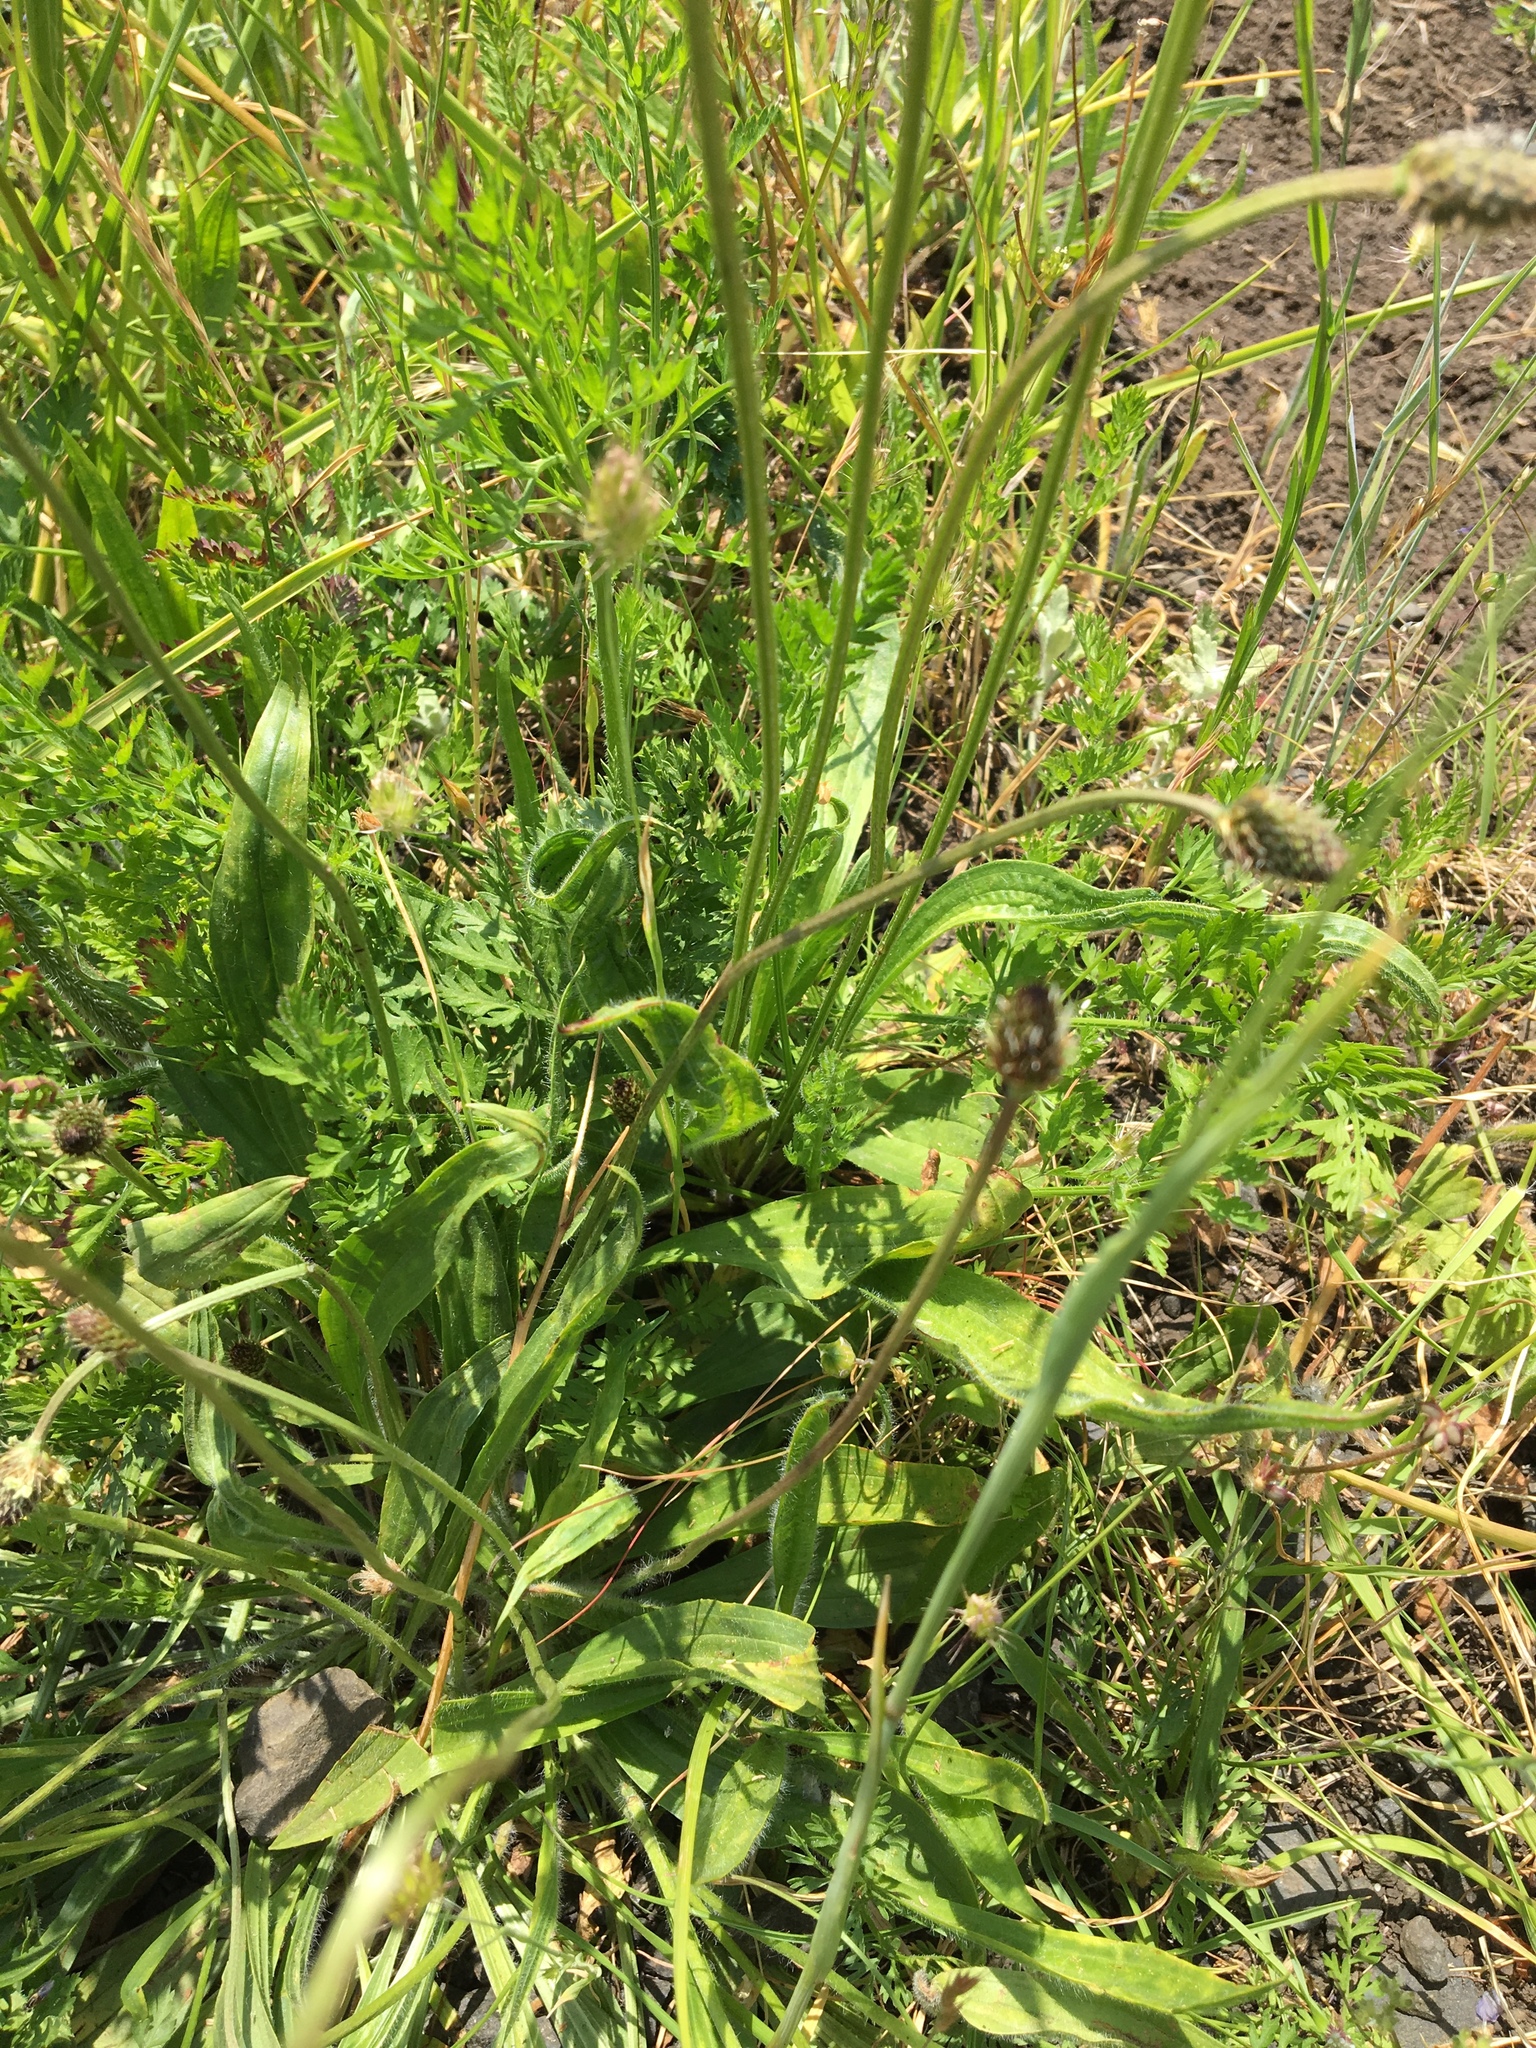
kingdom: Plantae
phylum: Tracheophyta
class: Magnoliopsida
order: Lamiales
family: Plantaginaceae
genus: Plantago
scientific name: Plantago lanceolata
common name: Ribwort plantain
